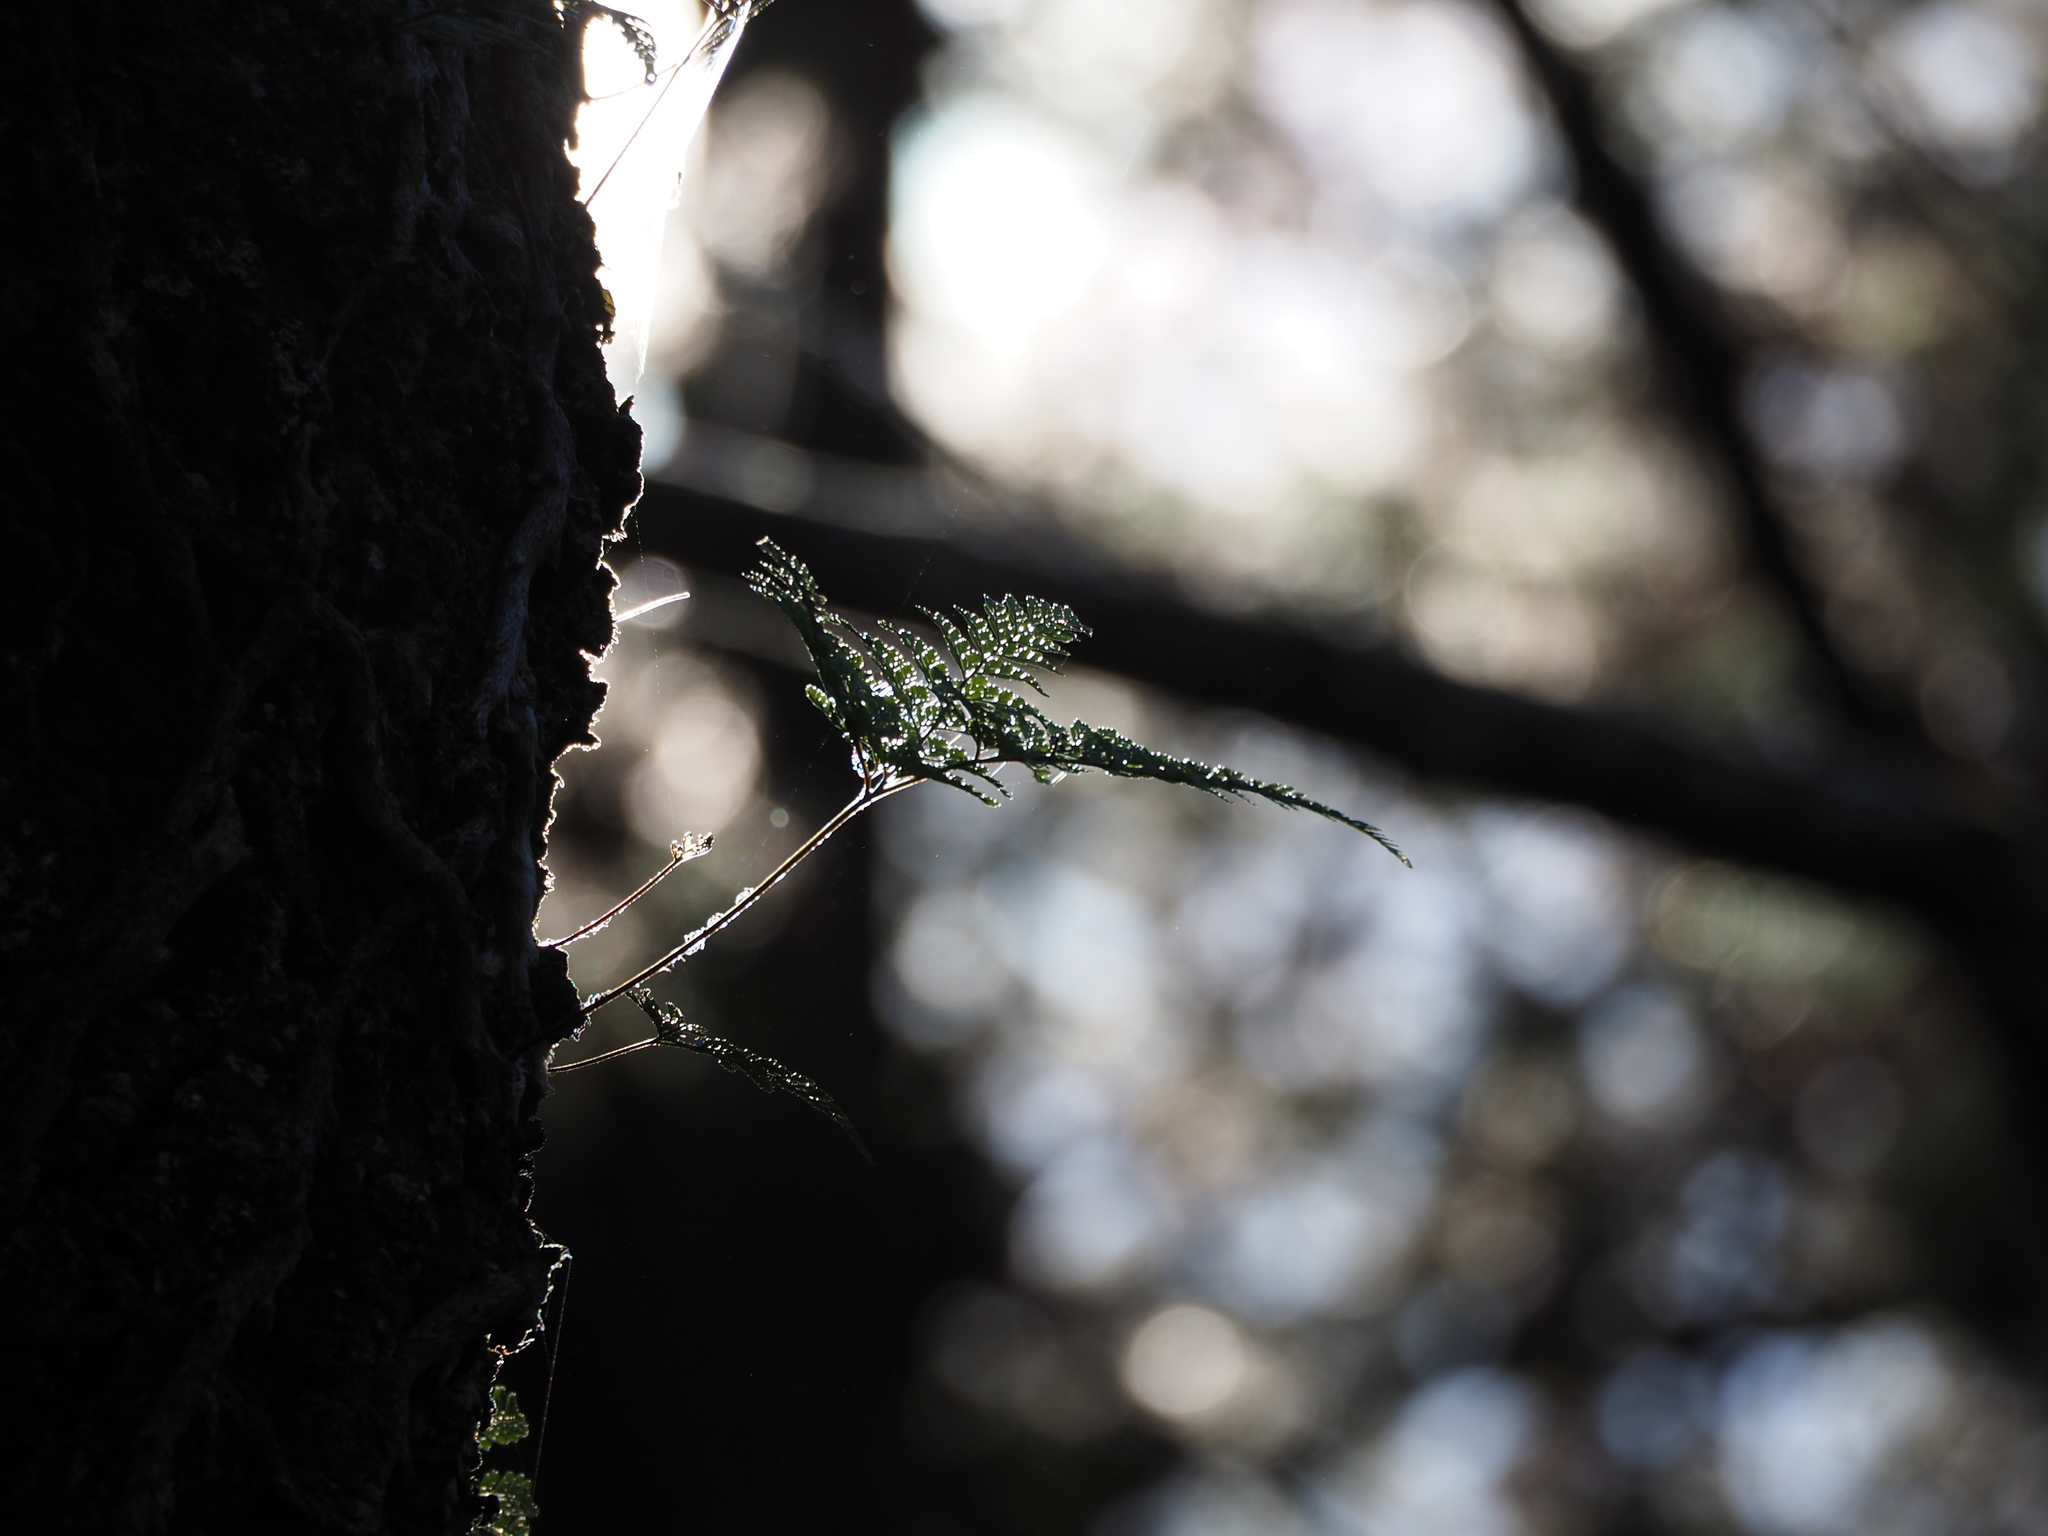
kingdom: Plantae
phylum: Tracheophyta
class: Polypodiopsida
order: Polypodiales
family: Davalliaceae
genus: Davallia
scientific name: Davallia griffithiana
